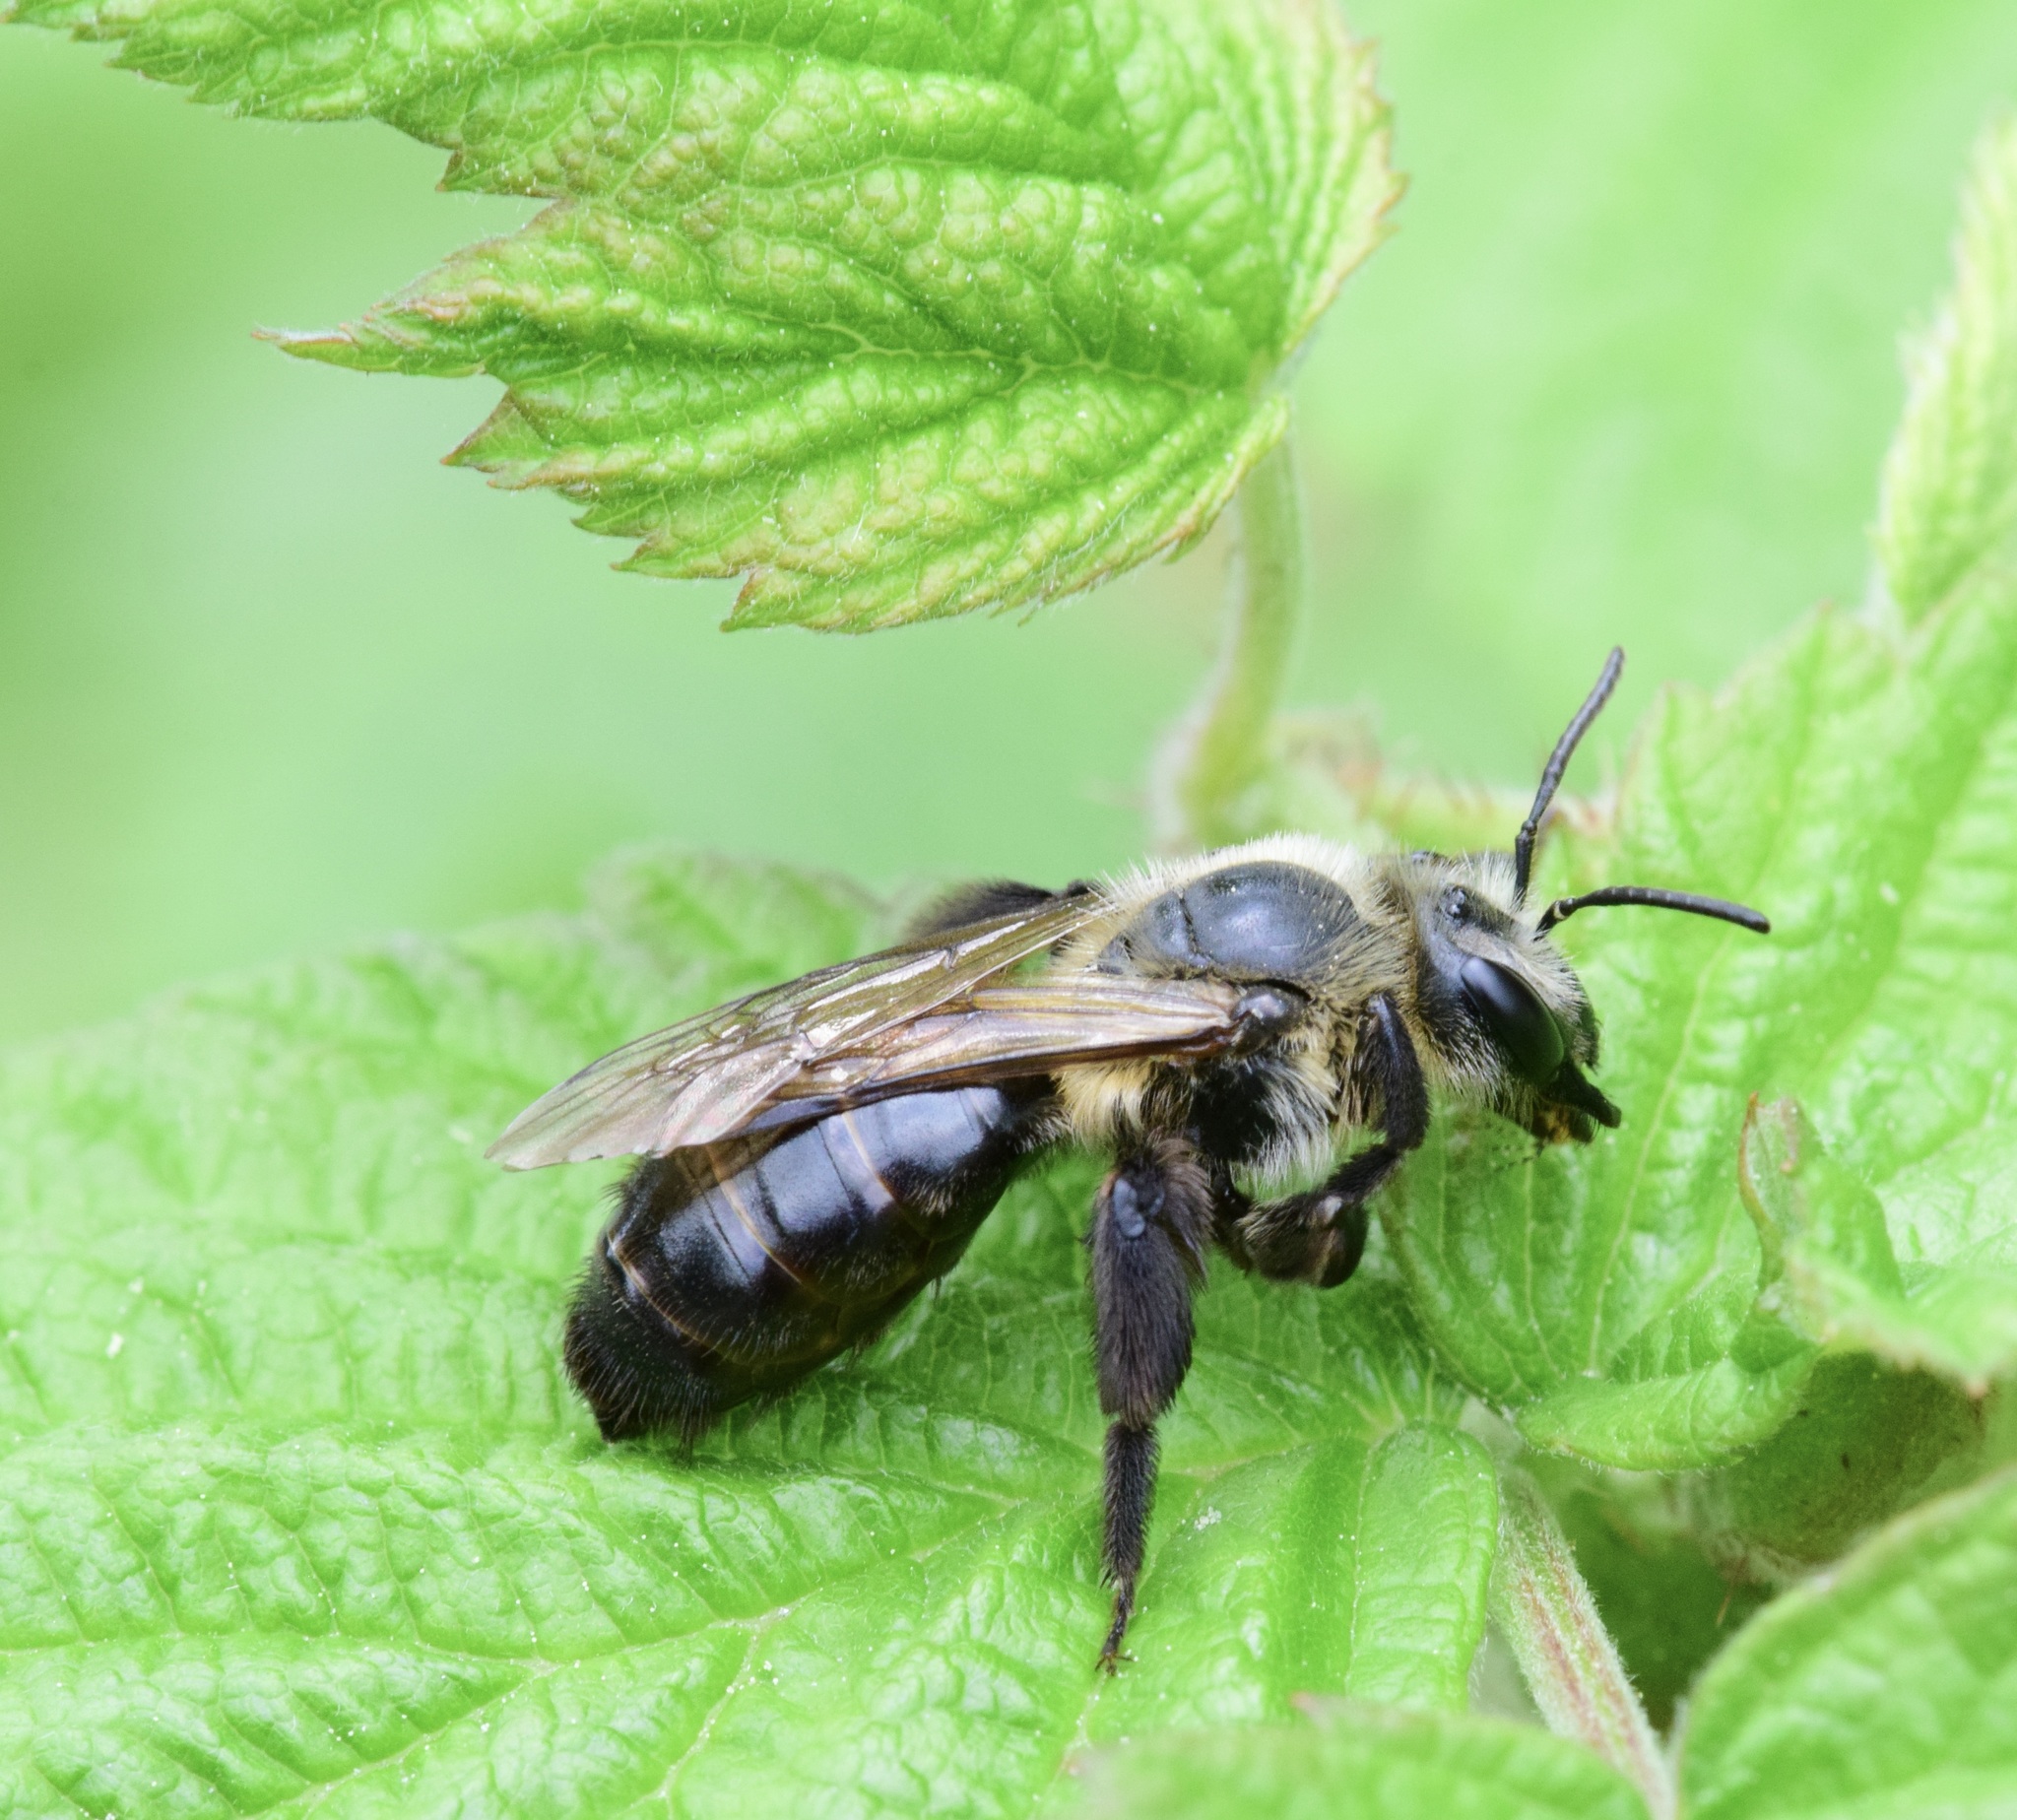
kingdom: Animalia
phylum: Arthropoda
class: Insecta
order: Hymenoptera
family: Andrenidae
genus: Andrena
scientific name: Andrena vicina
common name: Neighborly mining bee
